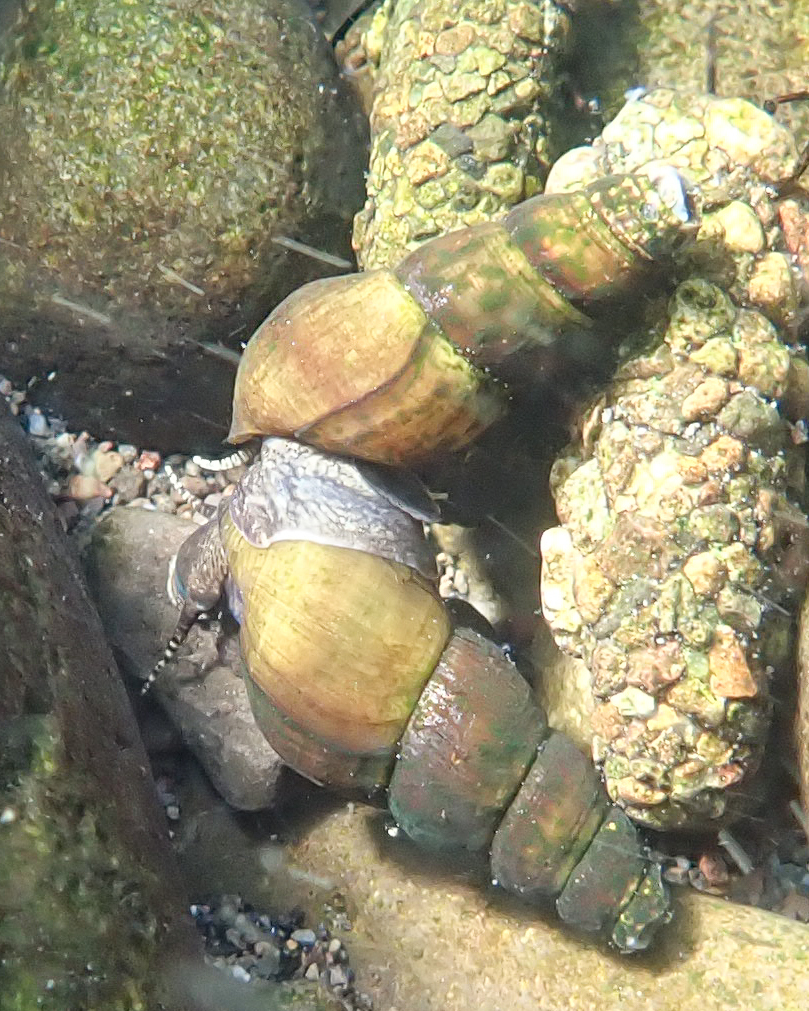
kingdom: Animalia
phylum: Mollusca
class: Gastropoda
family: Semisulcospiridae
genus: Juga
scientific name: Juga plicifera
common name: Pleated juga
